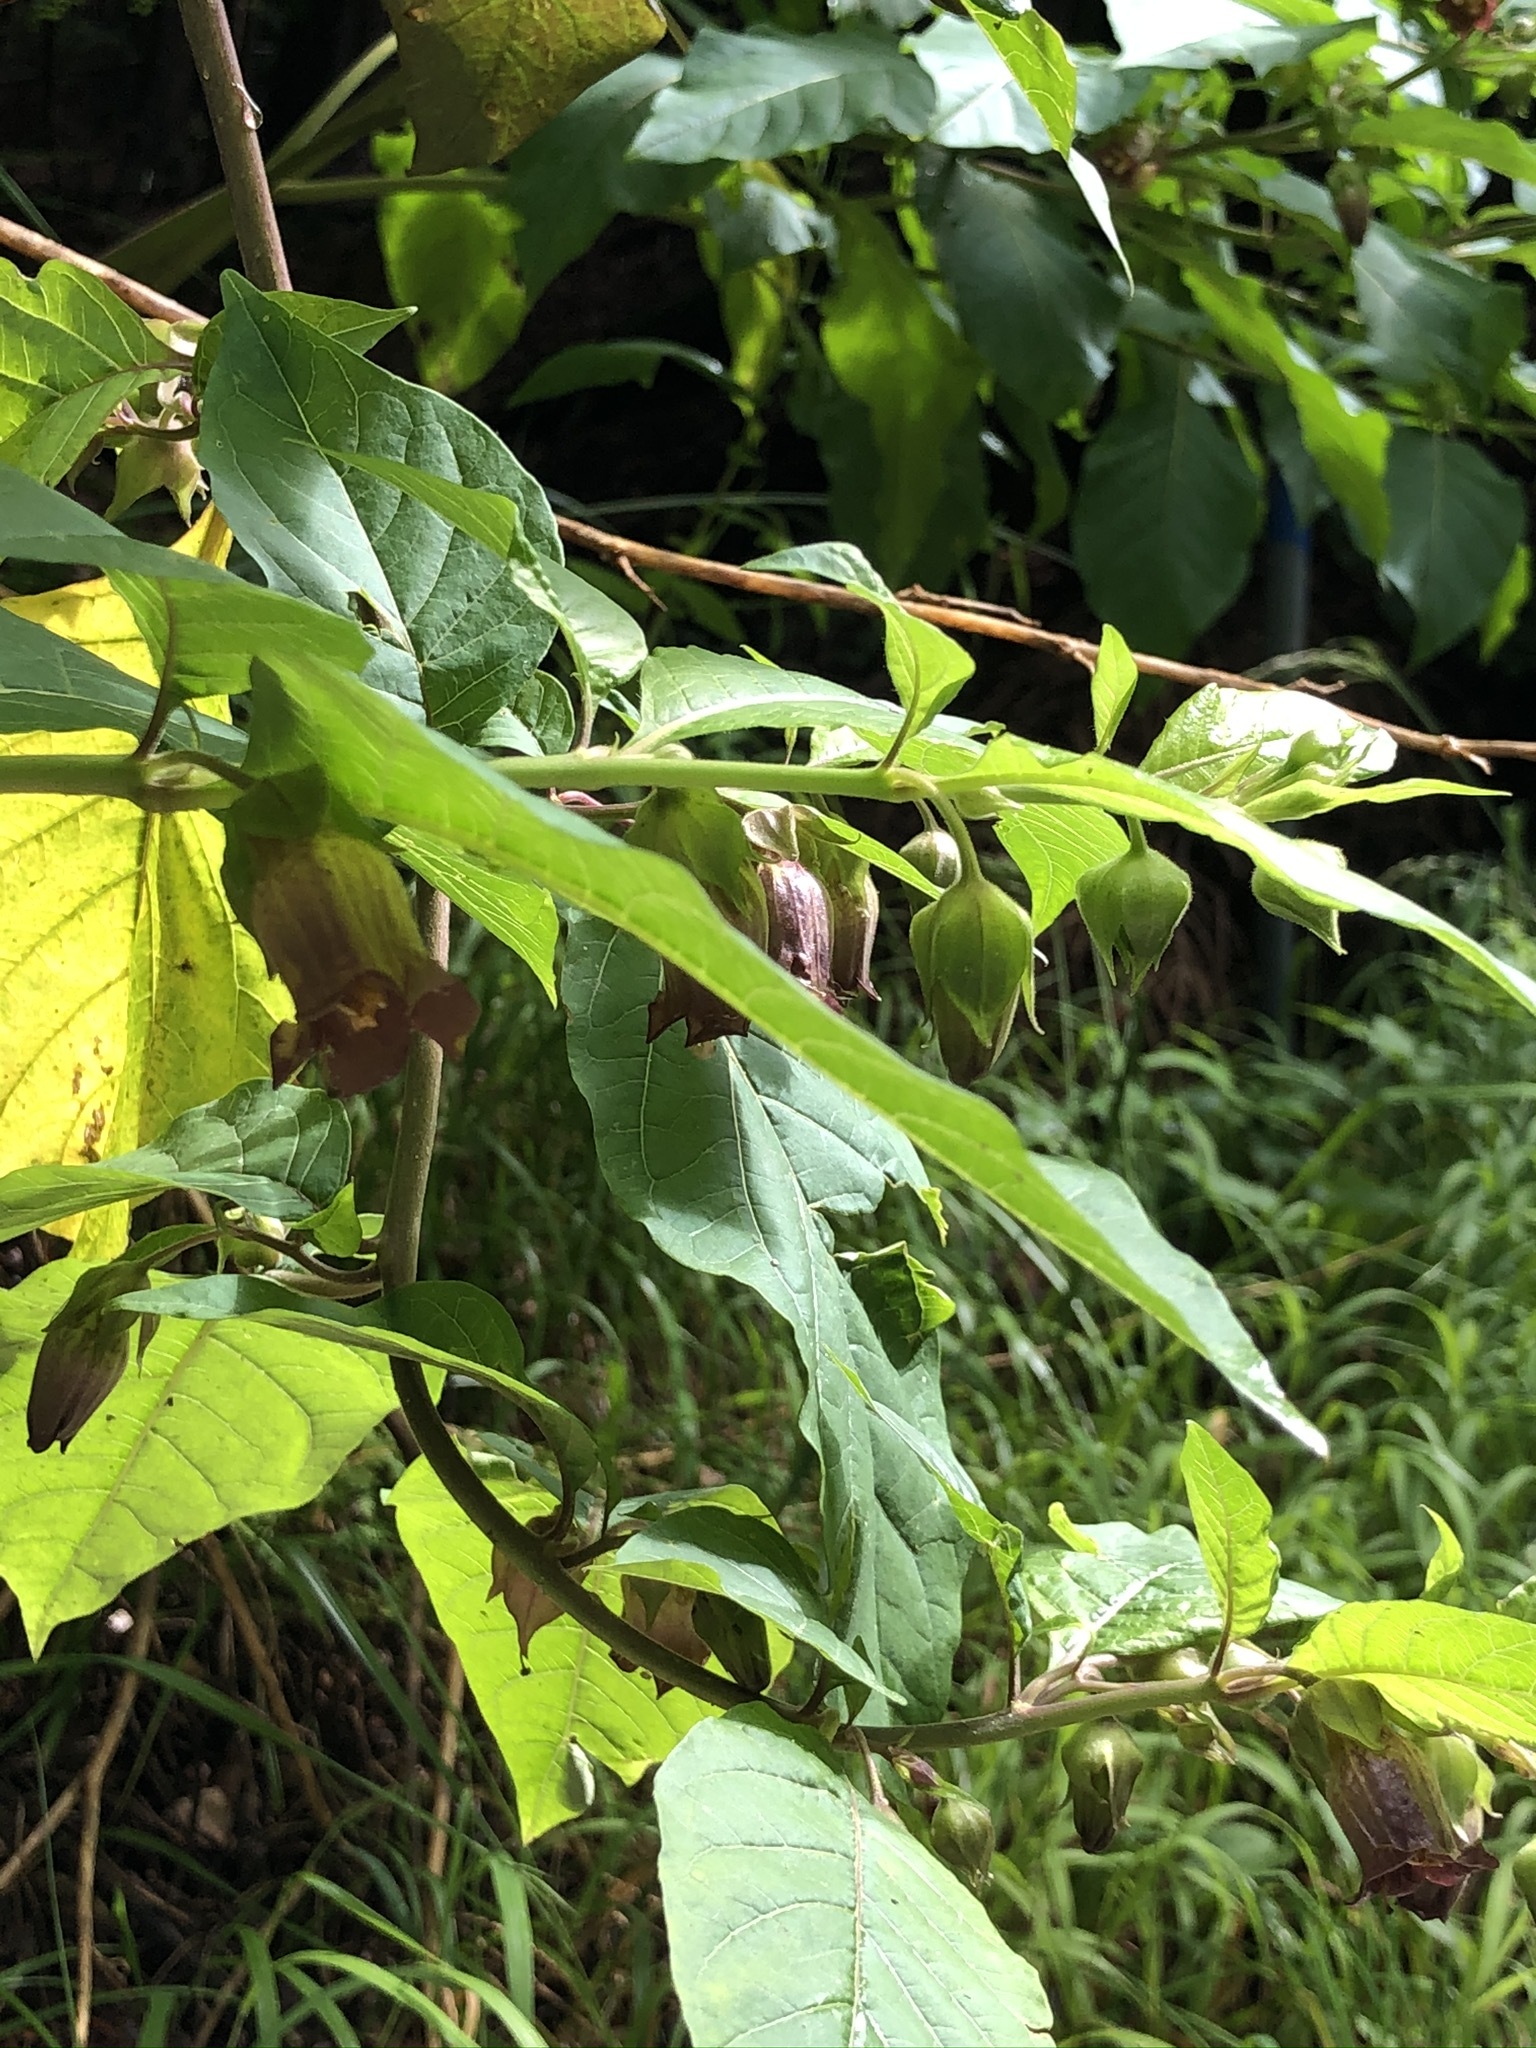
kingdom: Plantae
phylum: Tracheophyta
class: Magnoliopsida
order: Solanales
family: Solanaceae
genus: Atropa
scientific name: Atropa belladonna
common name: Deadly nightshade
